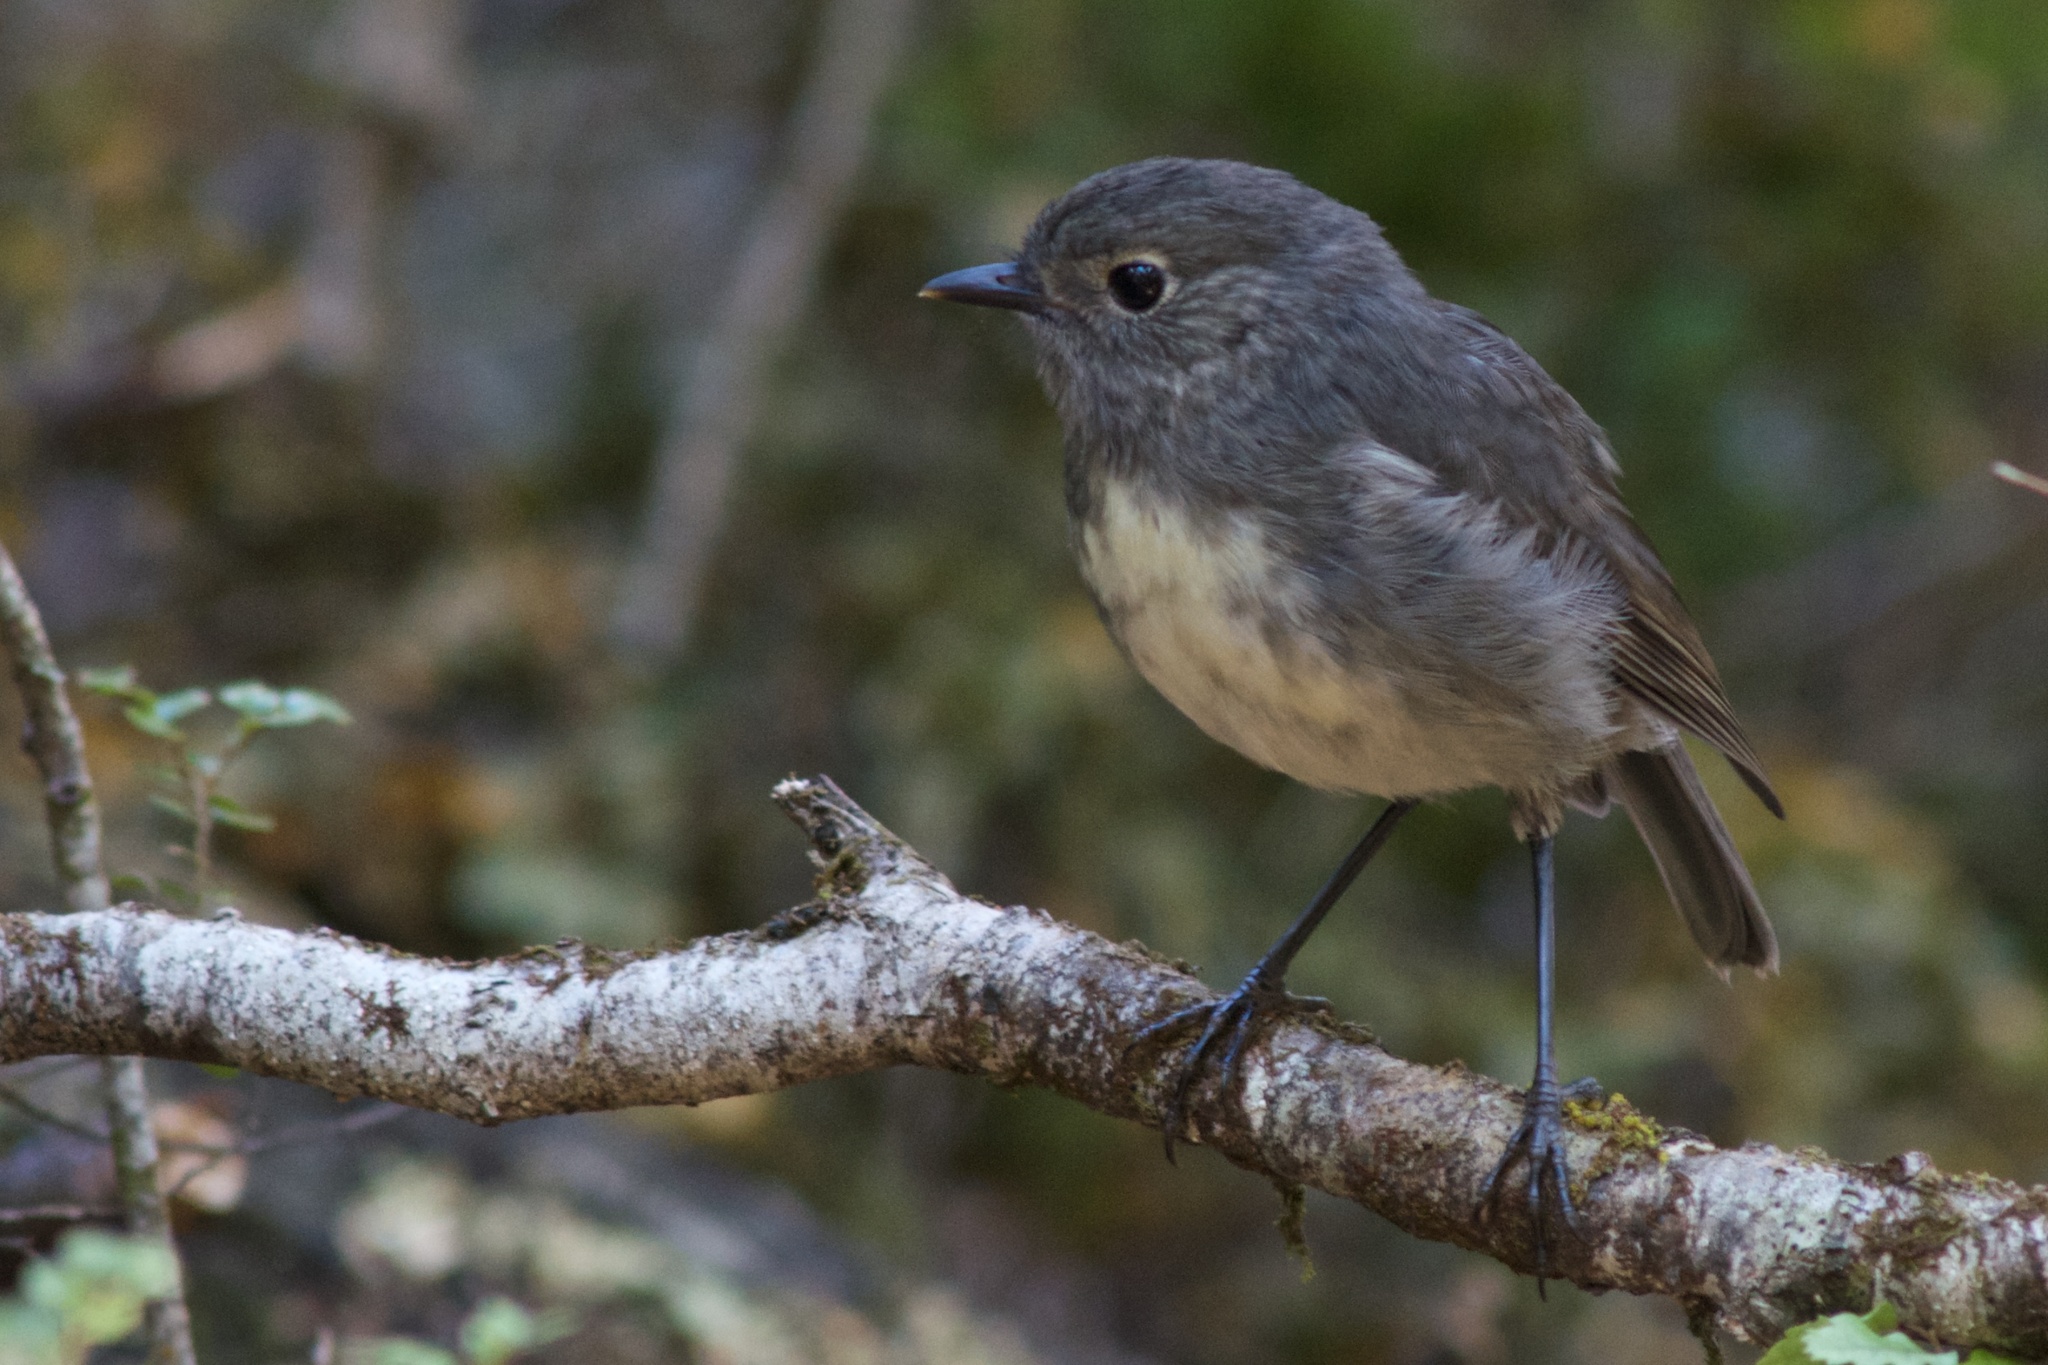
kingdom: Animalia
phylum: Chordata
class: Aves
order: Passeriformes
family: Petroicidae
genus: Petroica
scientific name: Petroica australis
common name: New zealand robin
